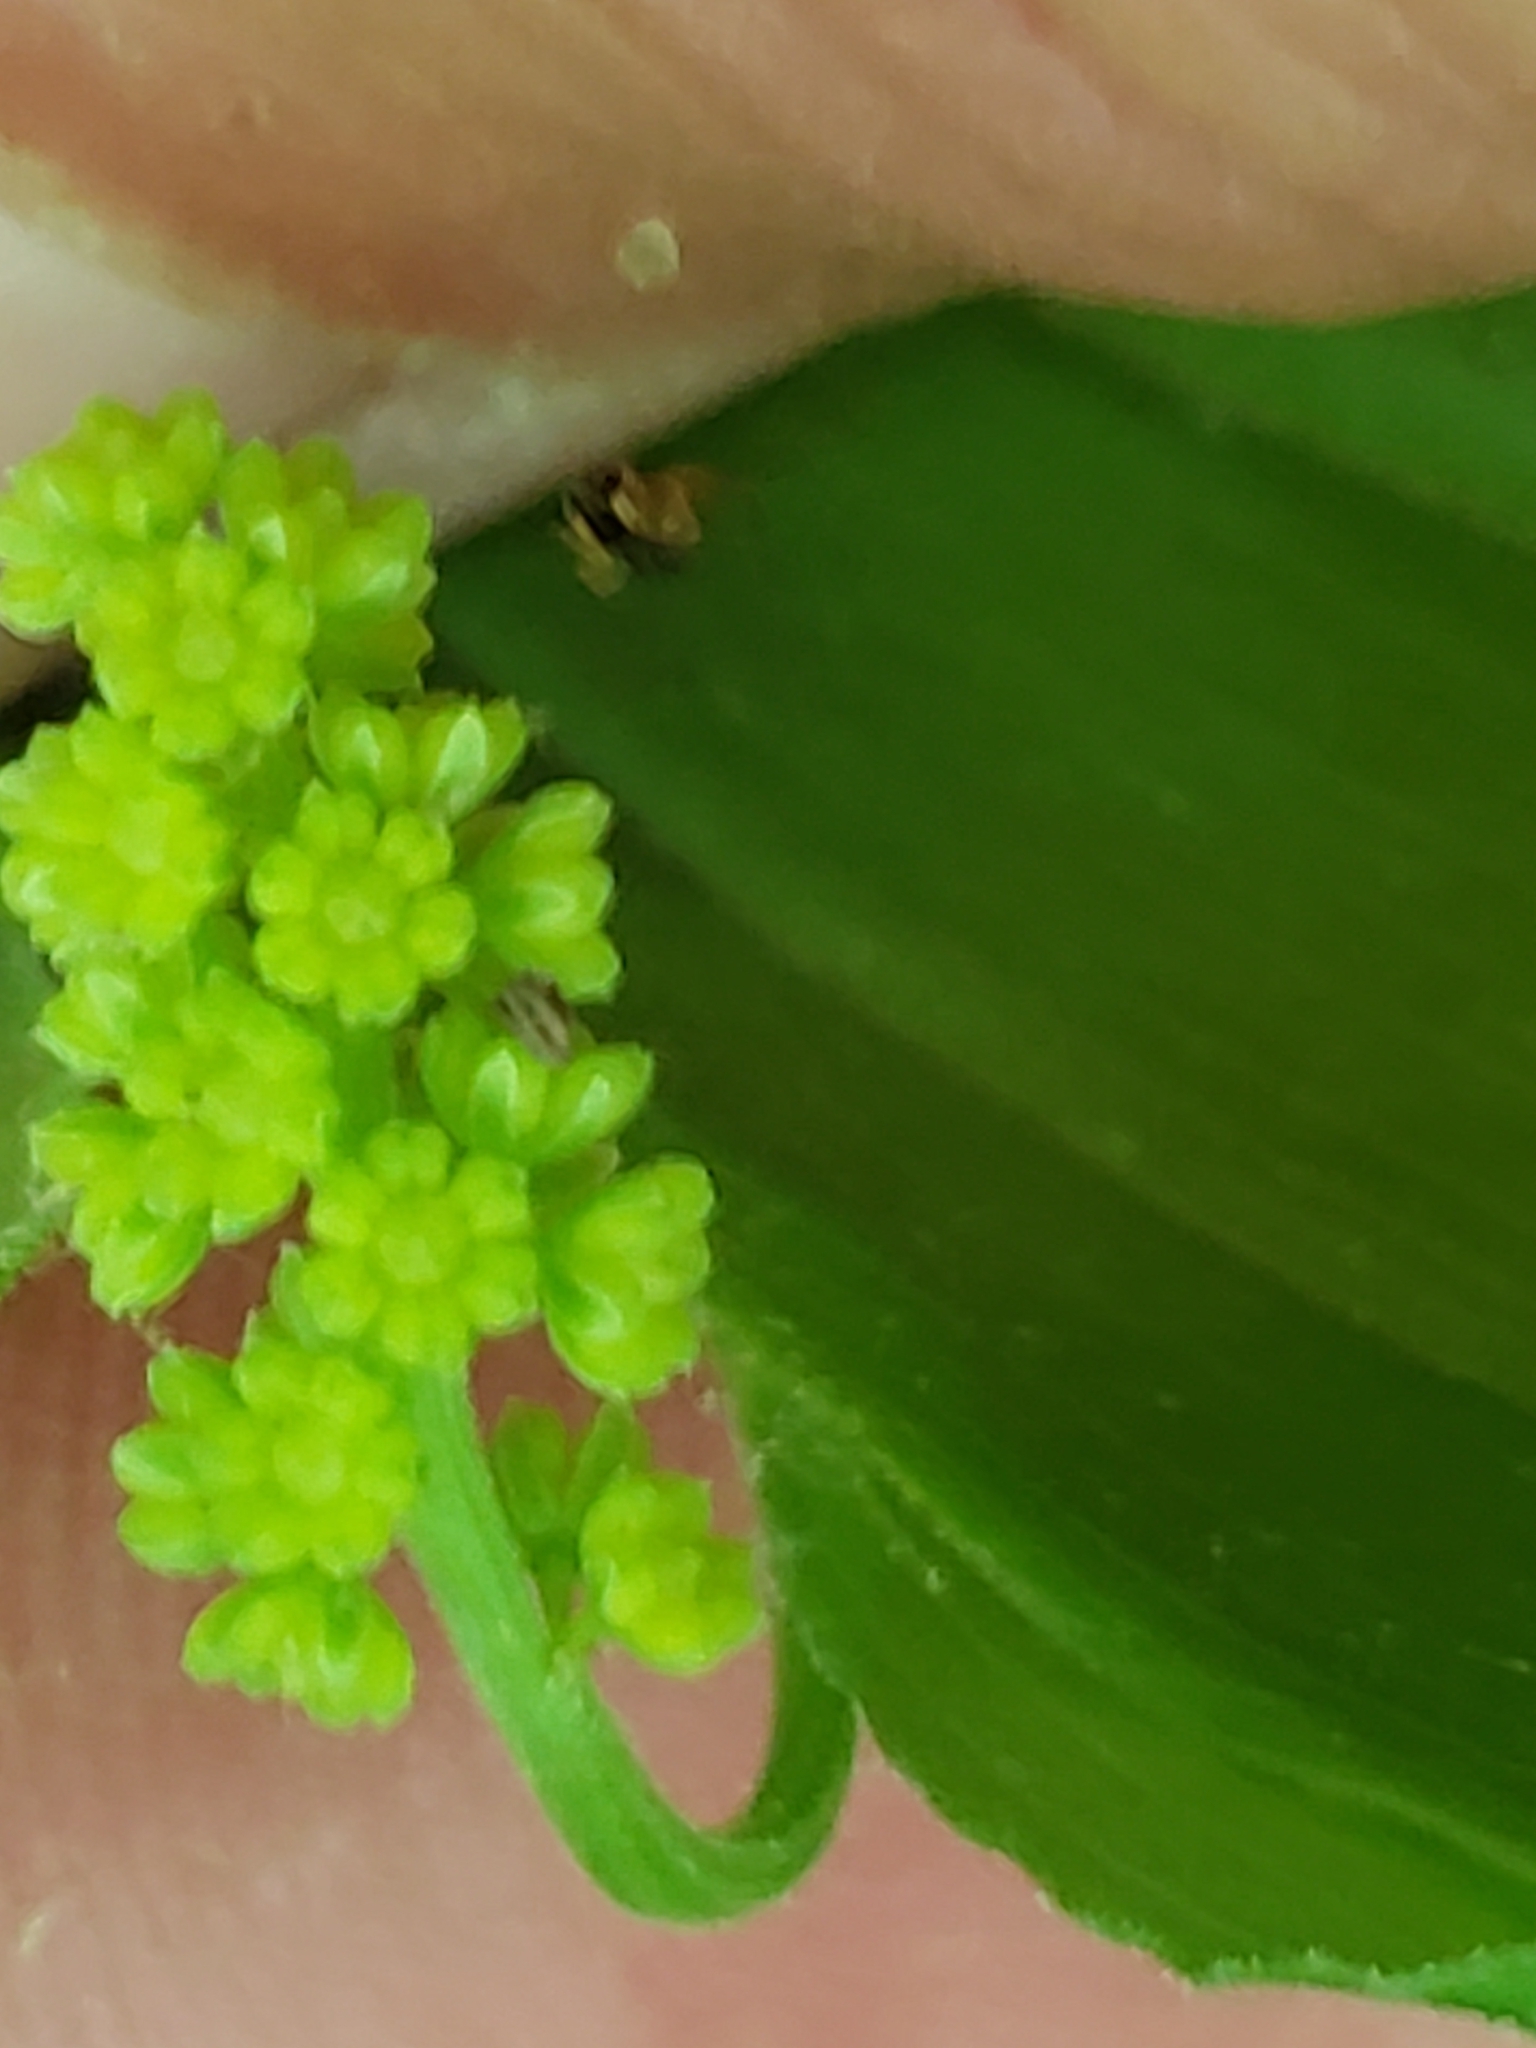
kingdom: Plantae
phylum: Tracheophyta
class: Liliopsida
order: Asparagales
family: Asparagaceae
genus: Maianthemum
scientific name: Maianthemum racemosum
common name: False spikenard
